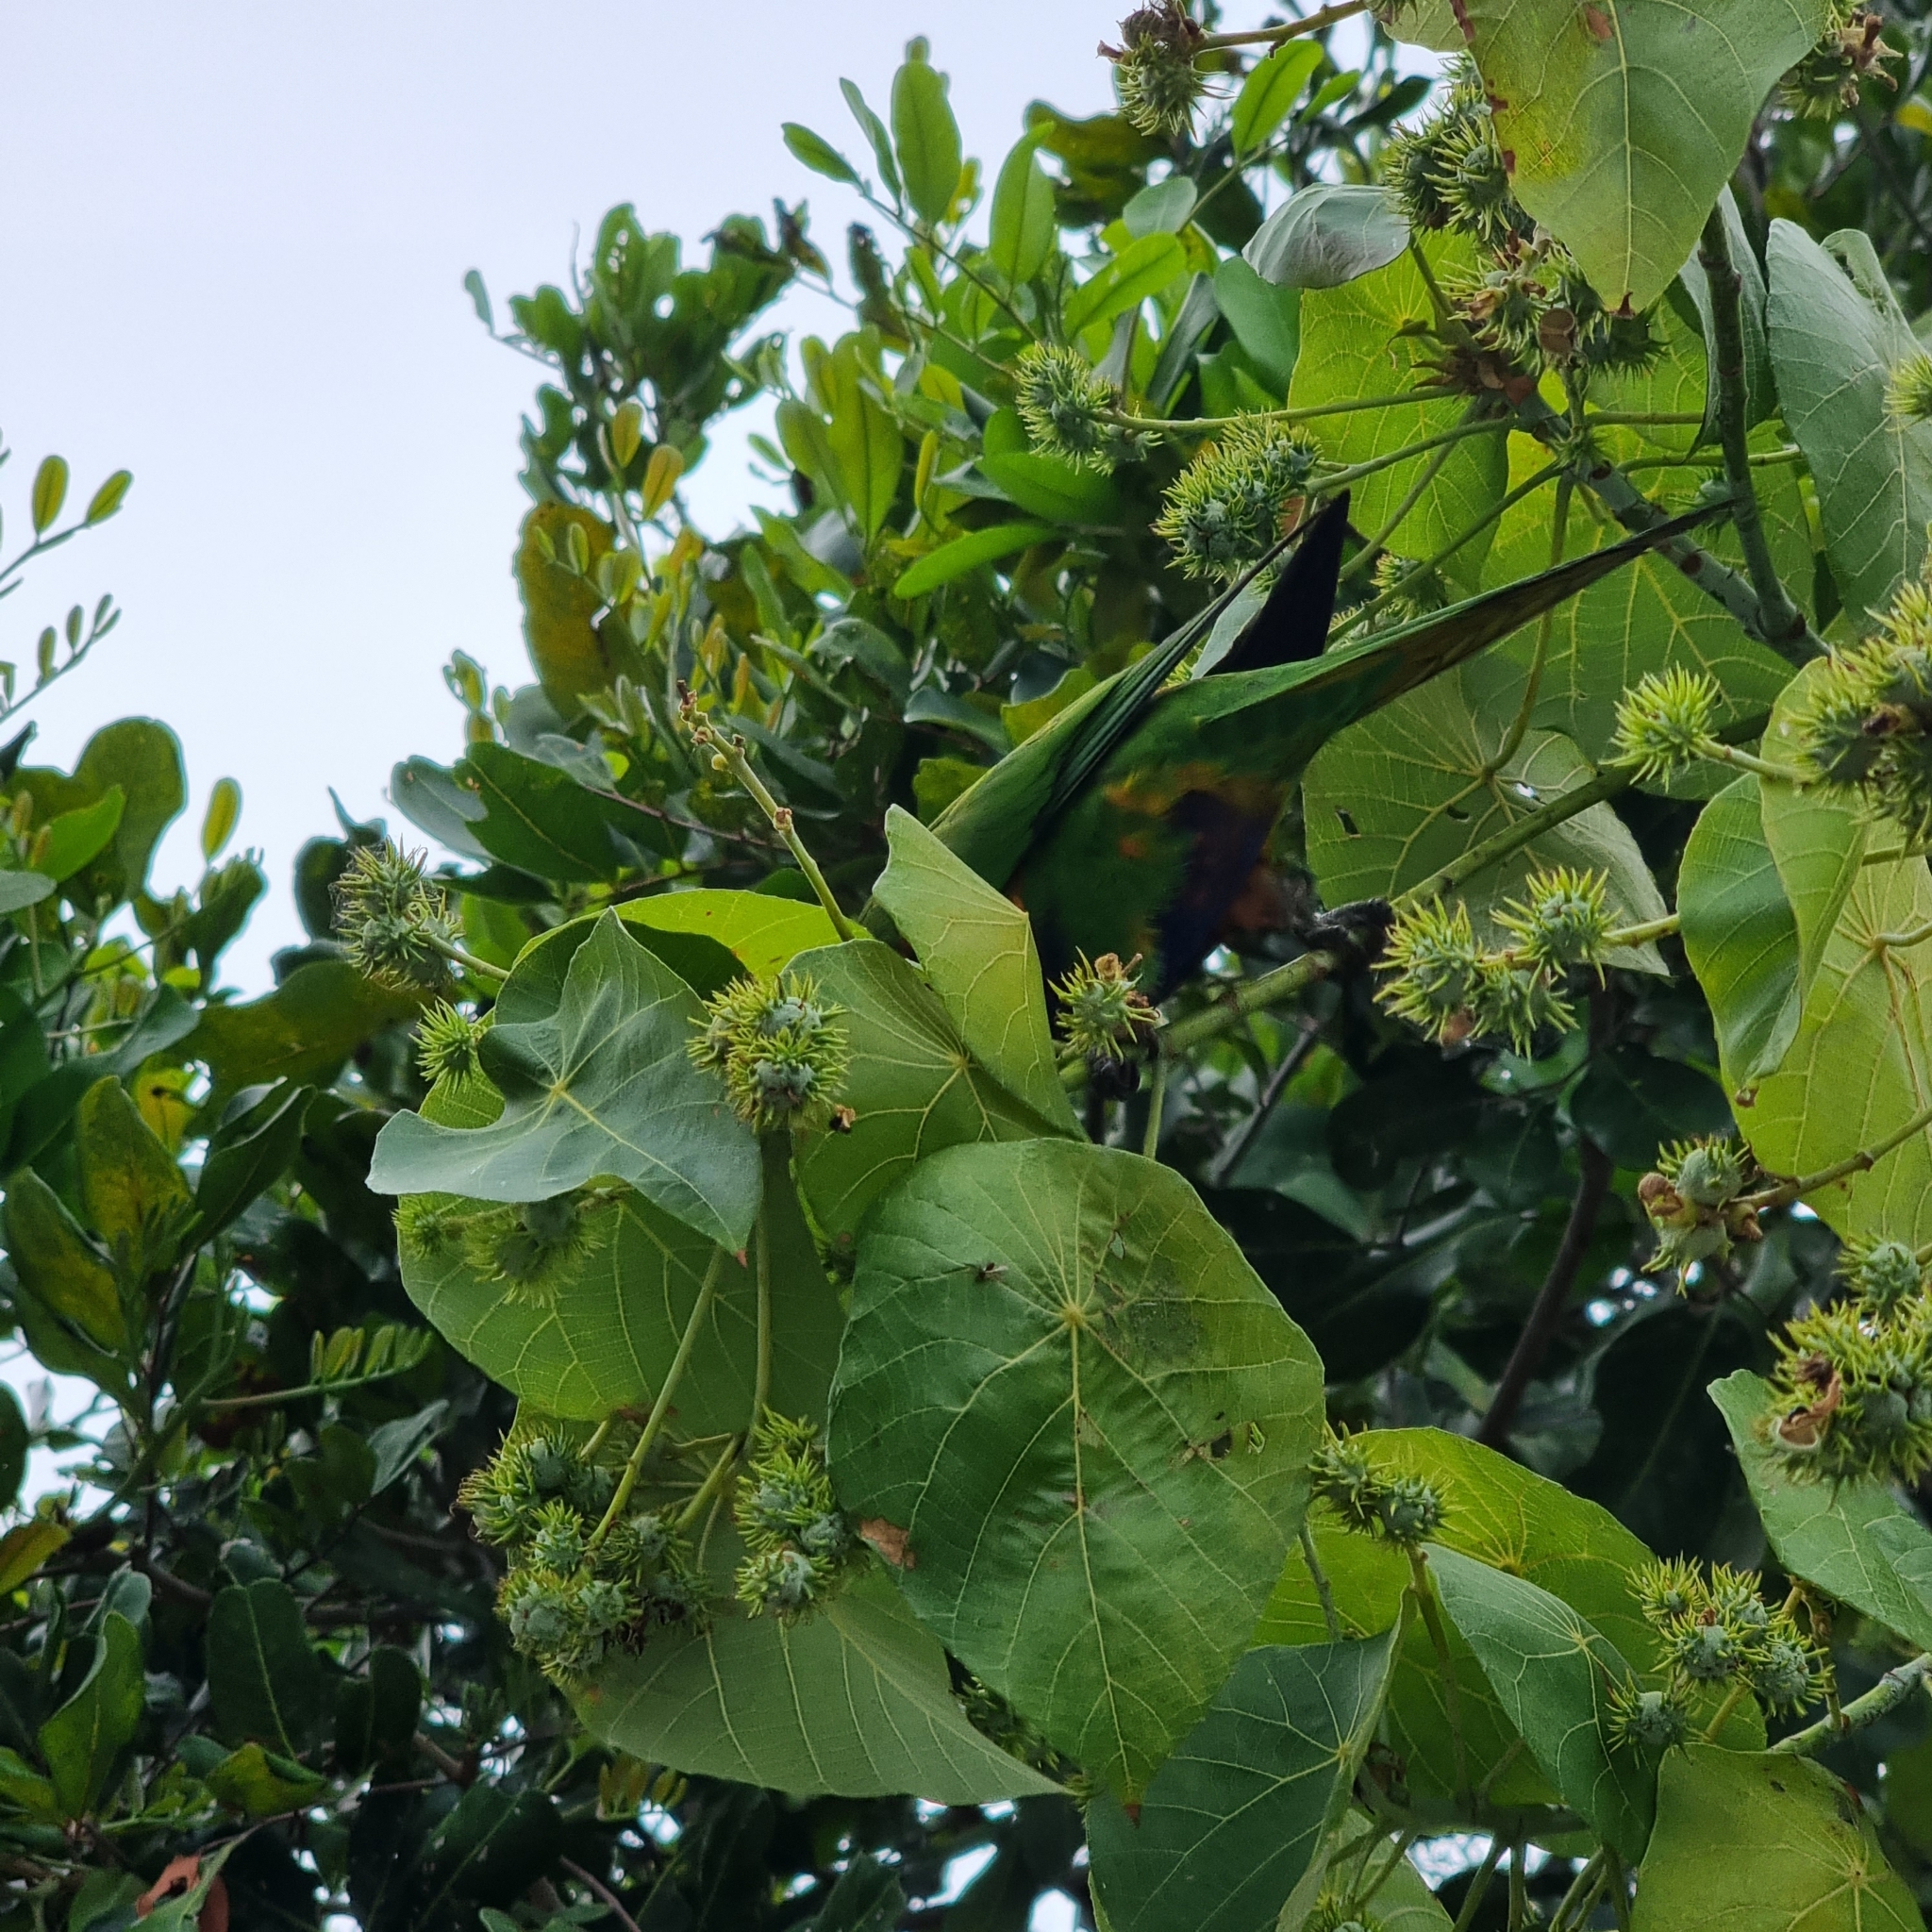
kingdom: Animalia
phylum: Chordata
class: Aves
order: Psittaciformes
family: Psittacidae
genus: Trichoglossus
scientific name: Trichoglossus haematodus
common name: Coconut lorikeet
